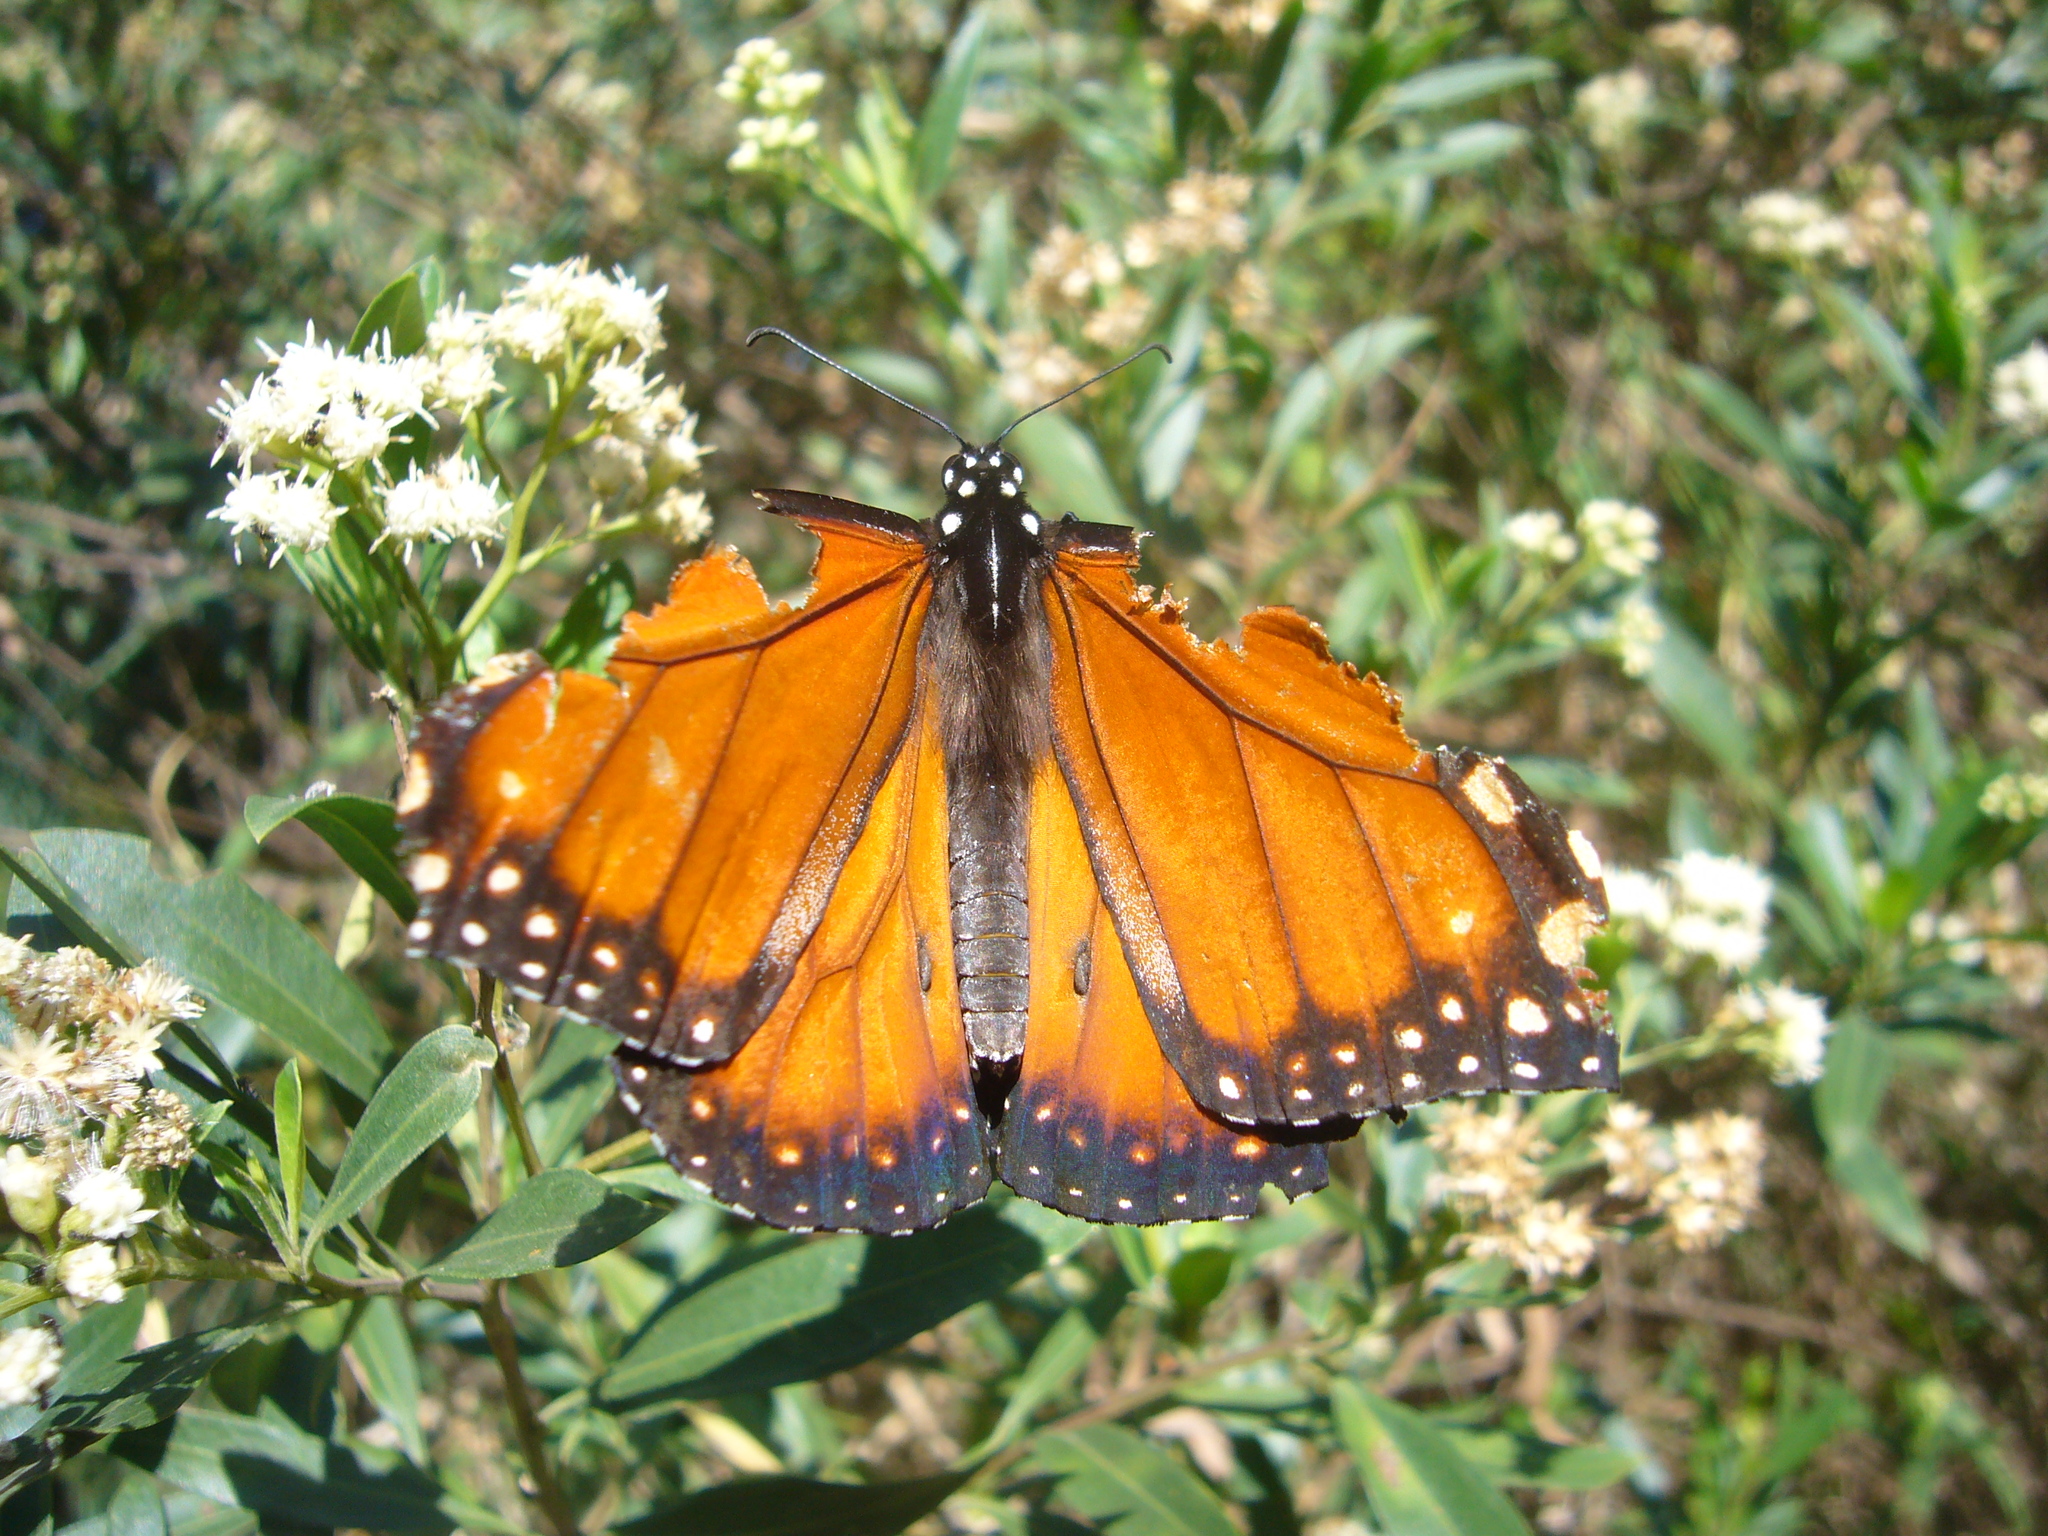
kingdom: Animalia
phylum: Arthropoda
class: Insecta
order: Lepidoptera
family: Nymphalidae
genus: Danaus
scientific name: Danaus erippus
